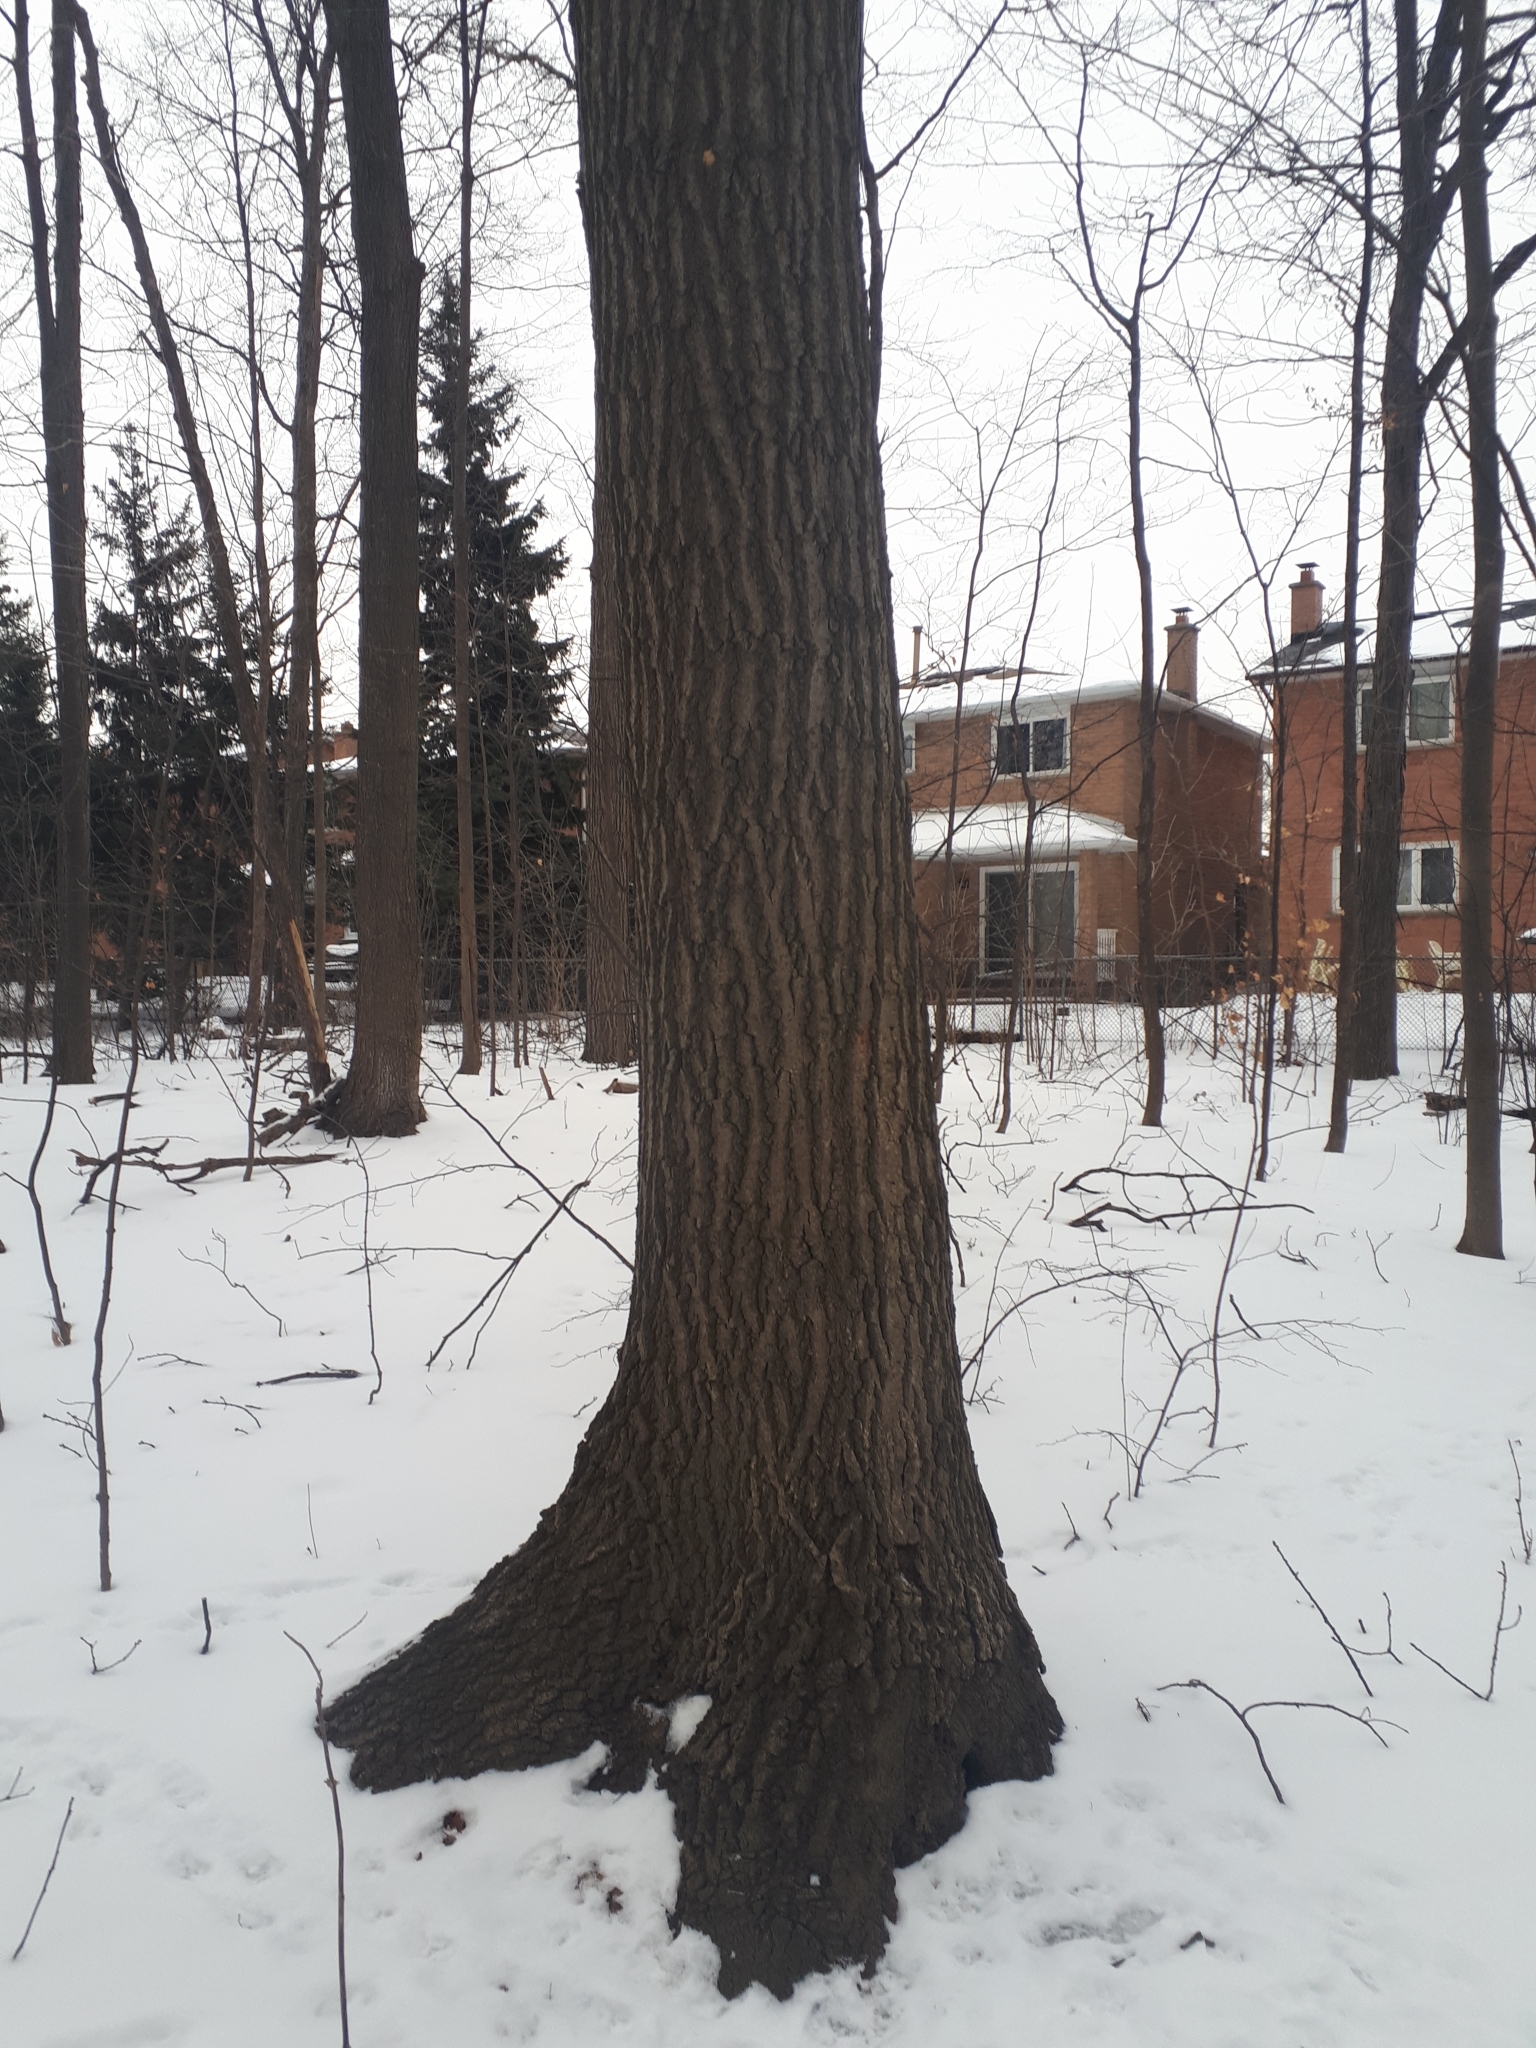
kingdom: Plantae
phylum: Tracheophyta
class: Magnoliopsida
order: Fagales
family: Fagaceae
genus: Quercus
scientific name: Quercus rubra
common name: Red oak
